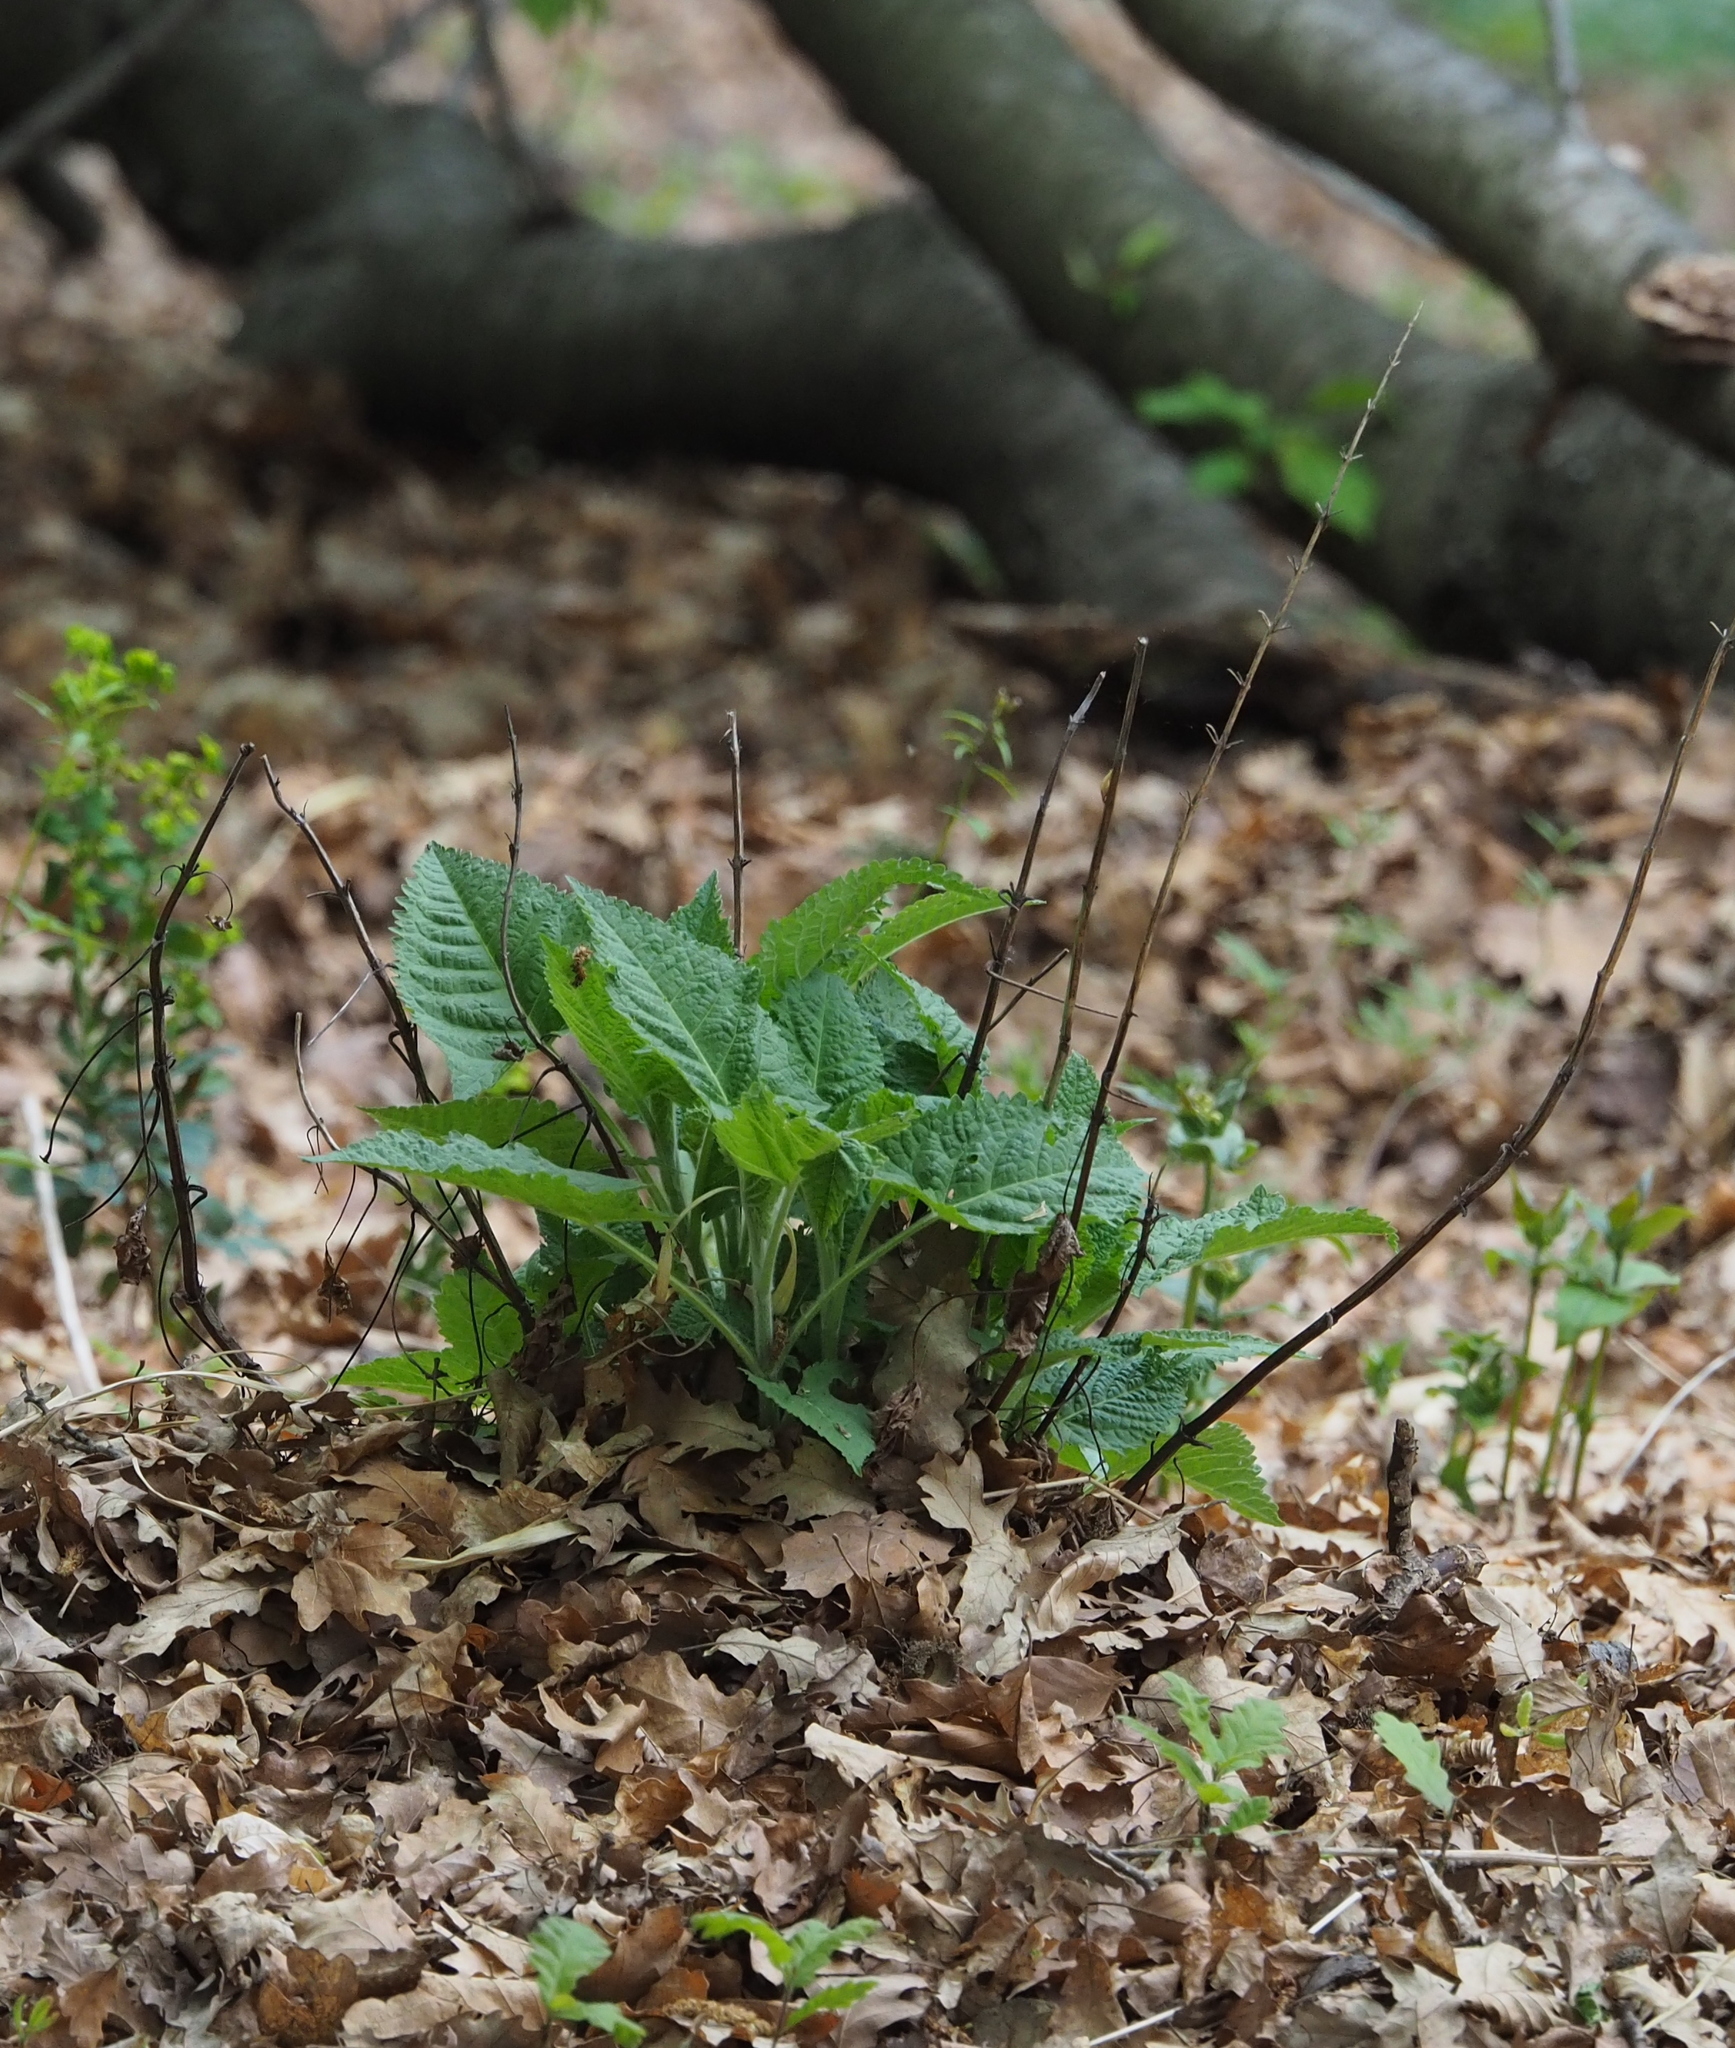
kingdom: Plantae
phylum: Tracheophyta
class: Magnoliopsida
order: Lamiales
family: Lamiaceae
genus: Salvia
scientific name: Salvia glutinosa
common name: Sticky clary
